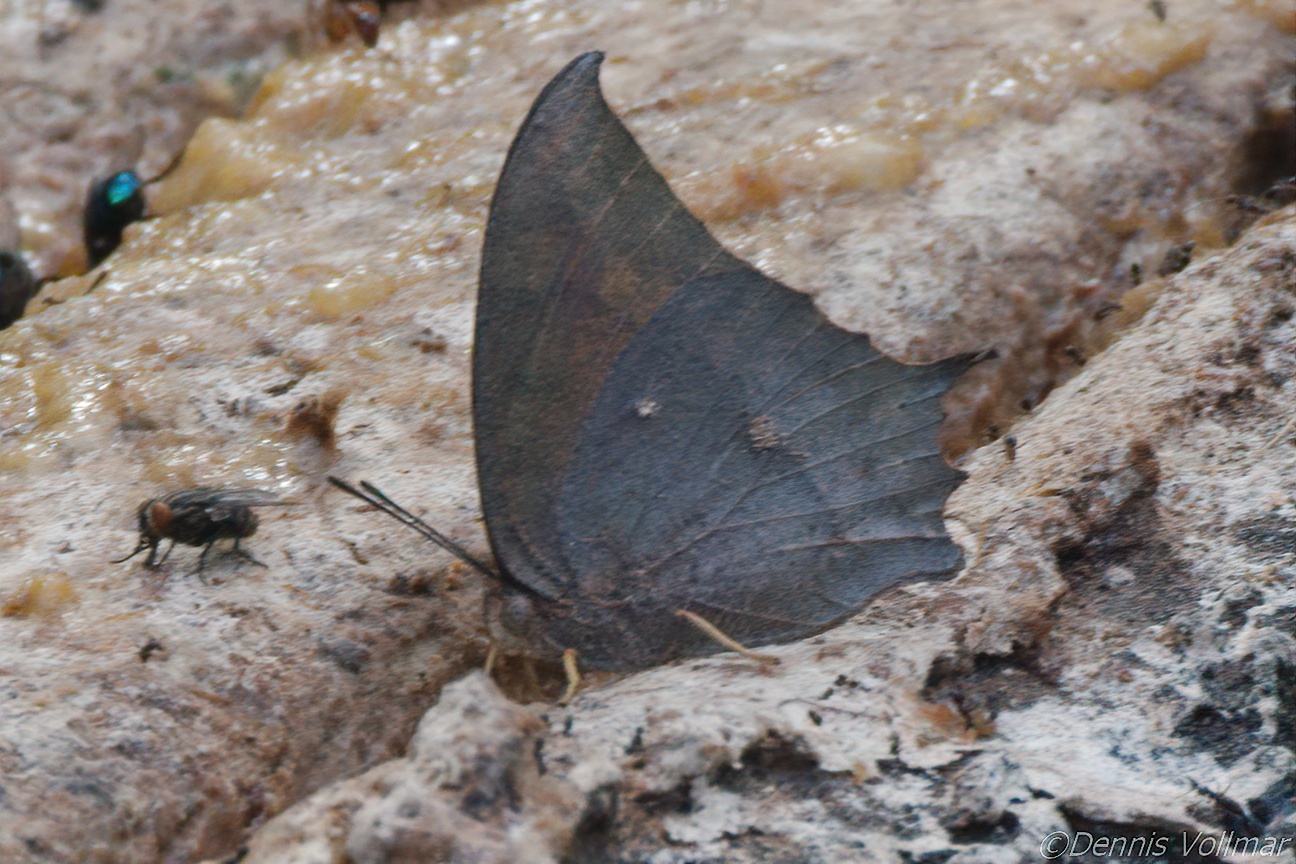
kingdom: Animalia
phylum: Arthropoda
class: Insecta
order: Lepidoptera
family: Nymphalidae
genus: Anaea
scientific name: Anaea aidea
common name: Tropical leafwing
